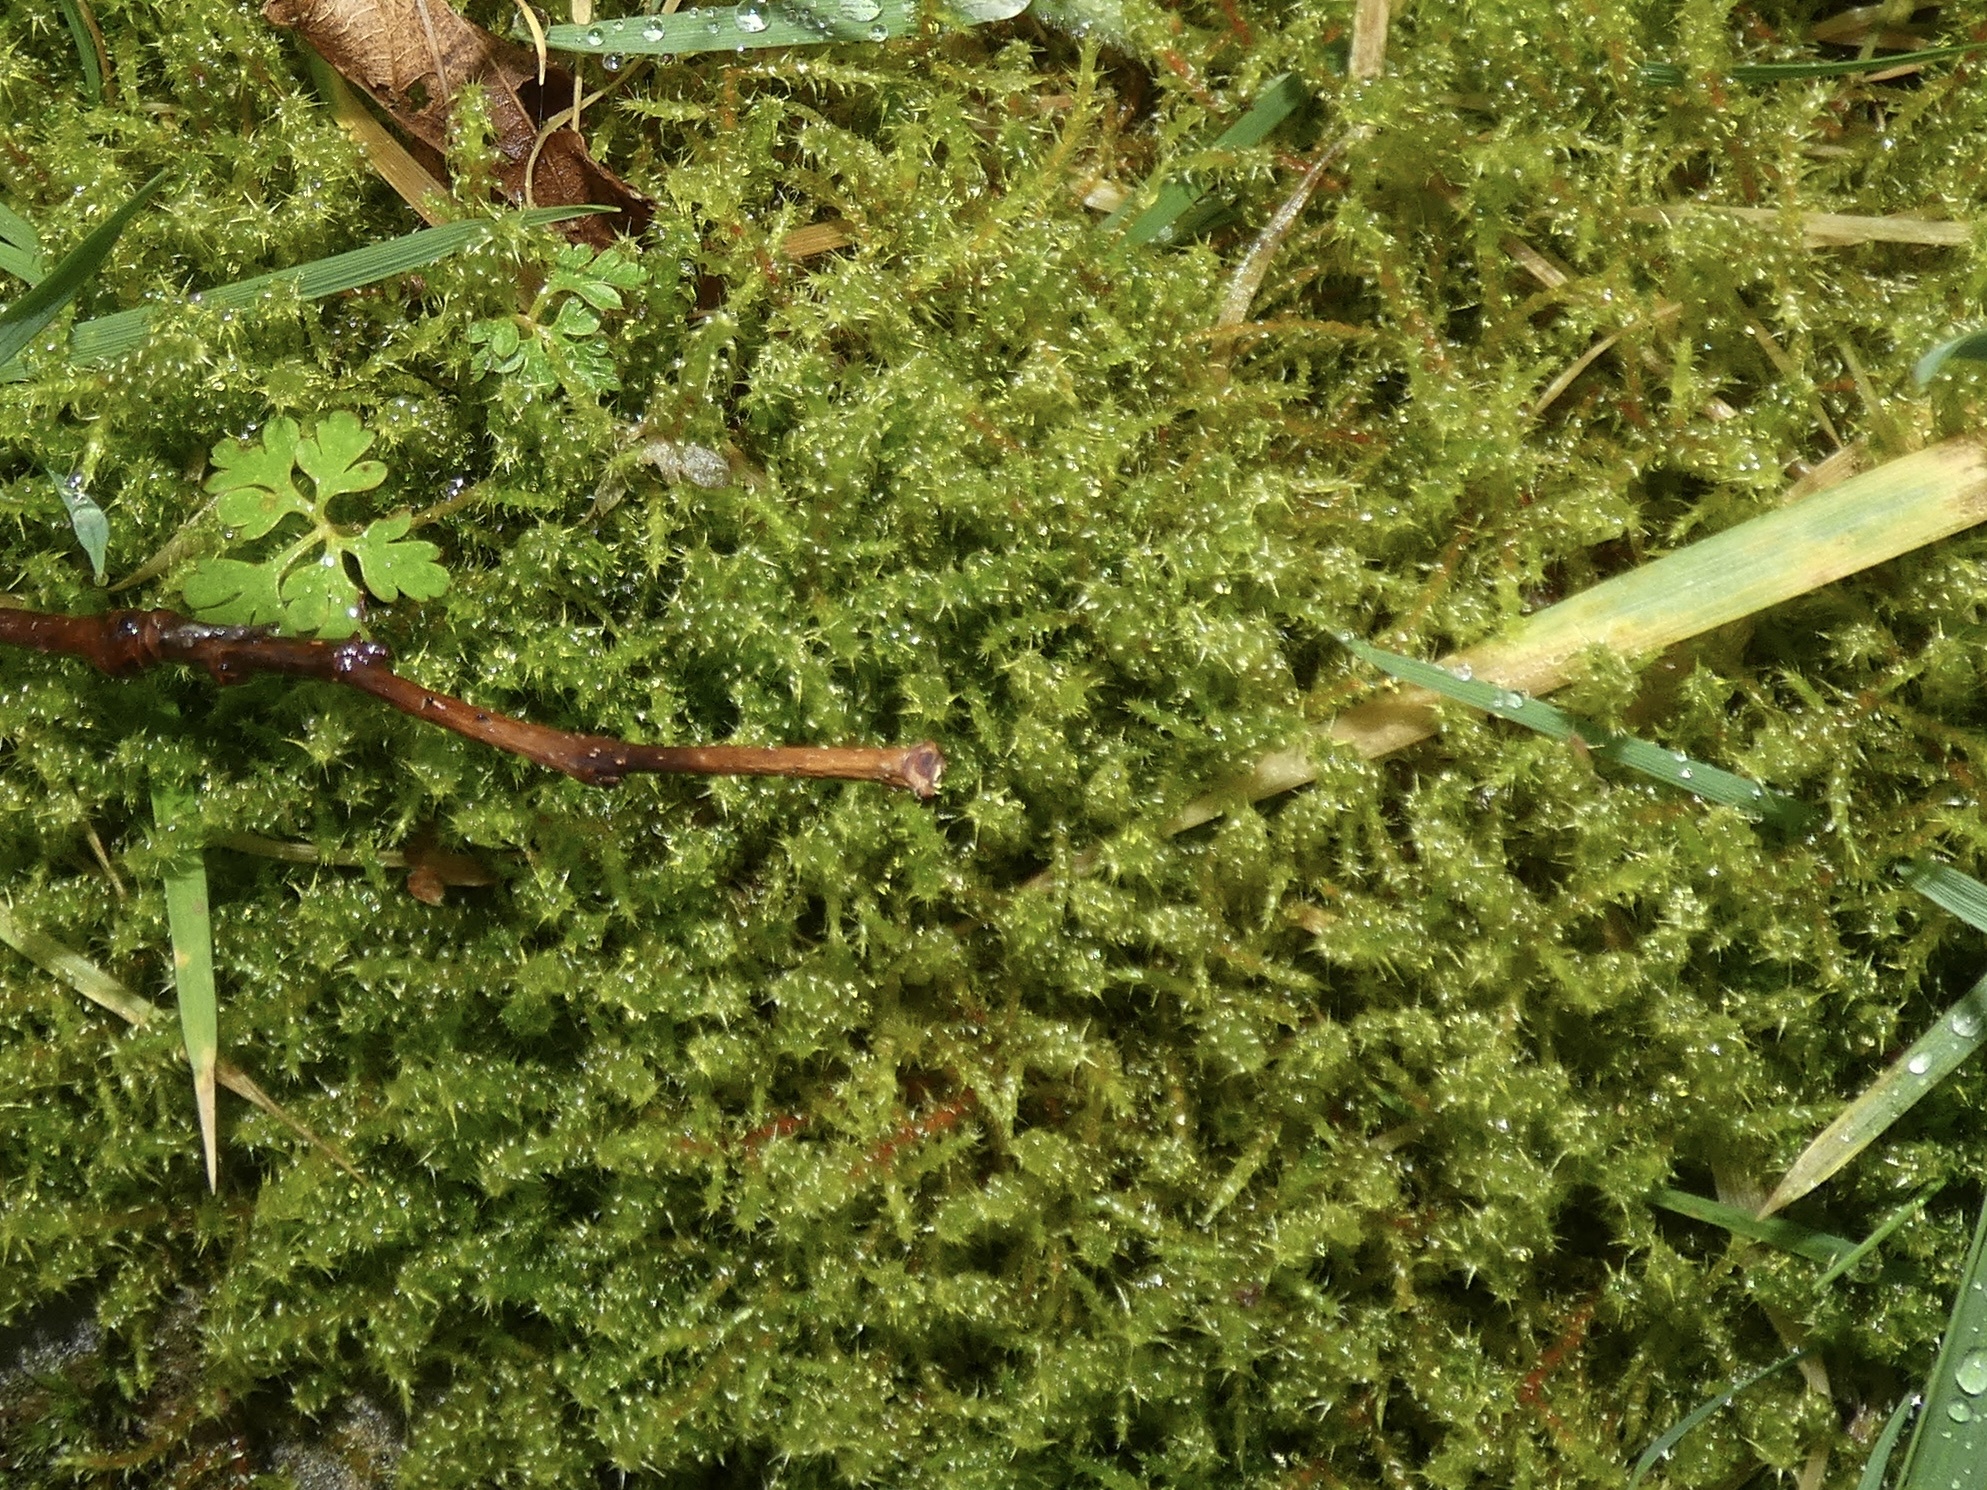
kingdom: Plantae
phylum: Bryophyta
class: Bryopsida
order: Hypnales
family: Hylocomiaceae
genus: Rhytidiadelphus
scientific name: Rhytidiadelphus squarrosus
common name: Springy turf-moss
